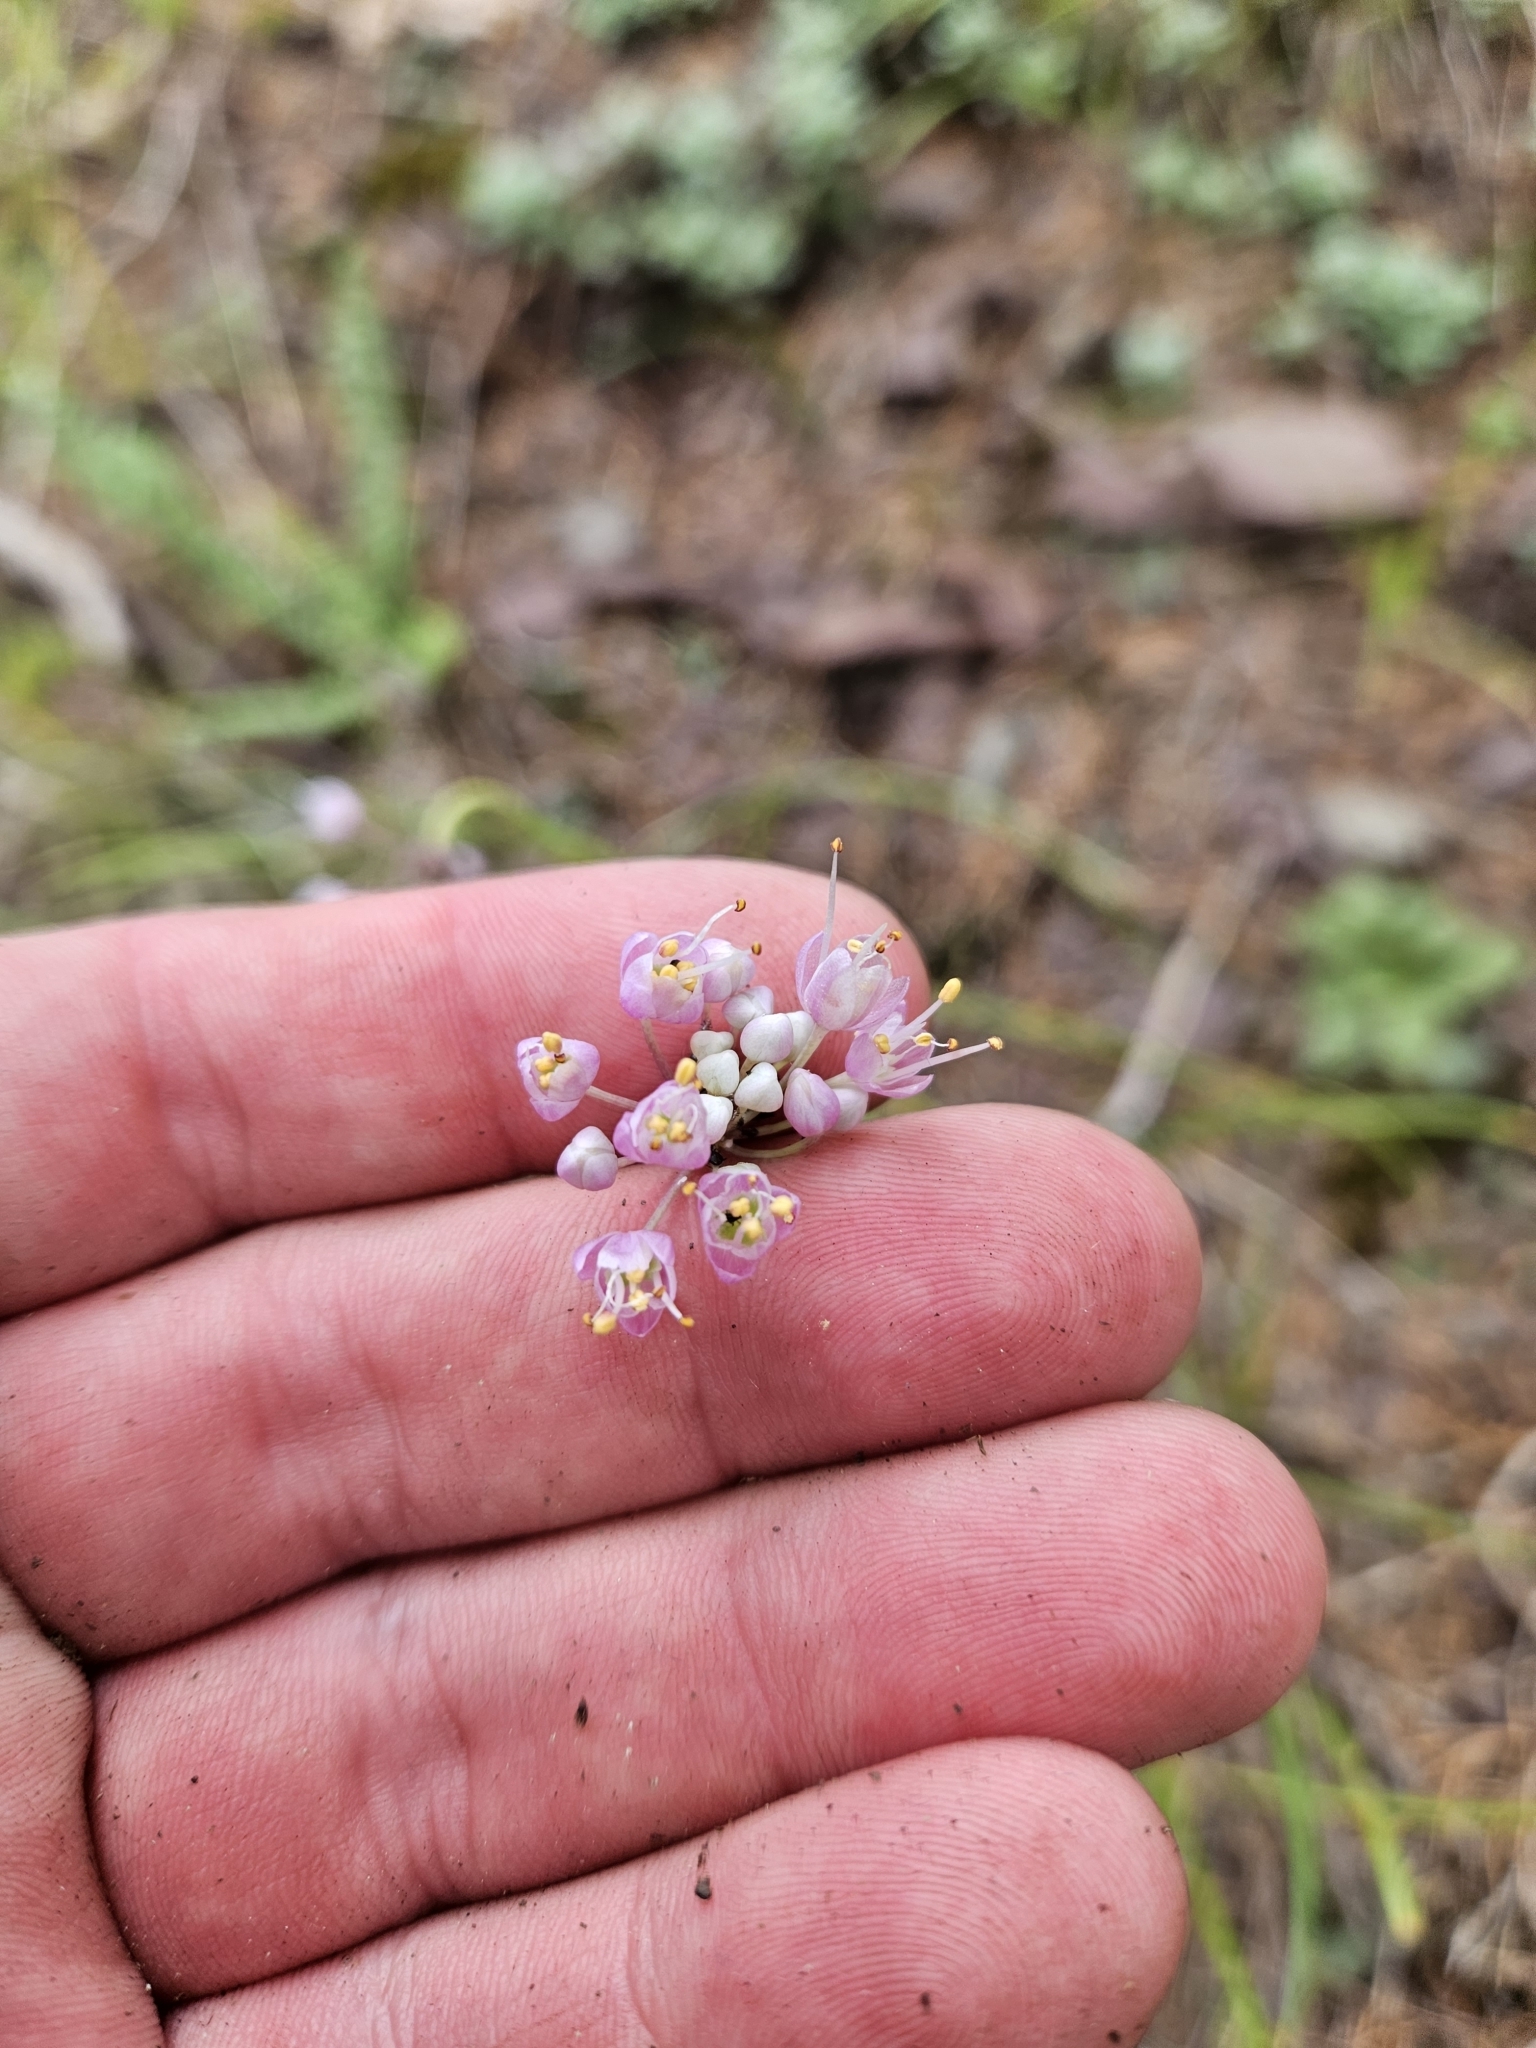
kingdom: Plantae
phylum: Tracheophyta
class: Liliopsida
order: Asparagales
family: Amaryllidaceae
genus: Allium
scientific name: Allium cernuum
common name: Nodding onion
